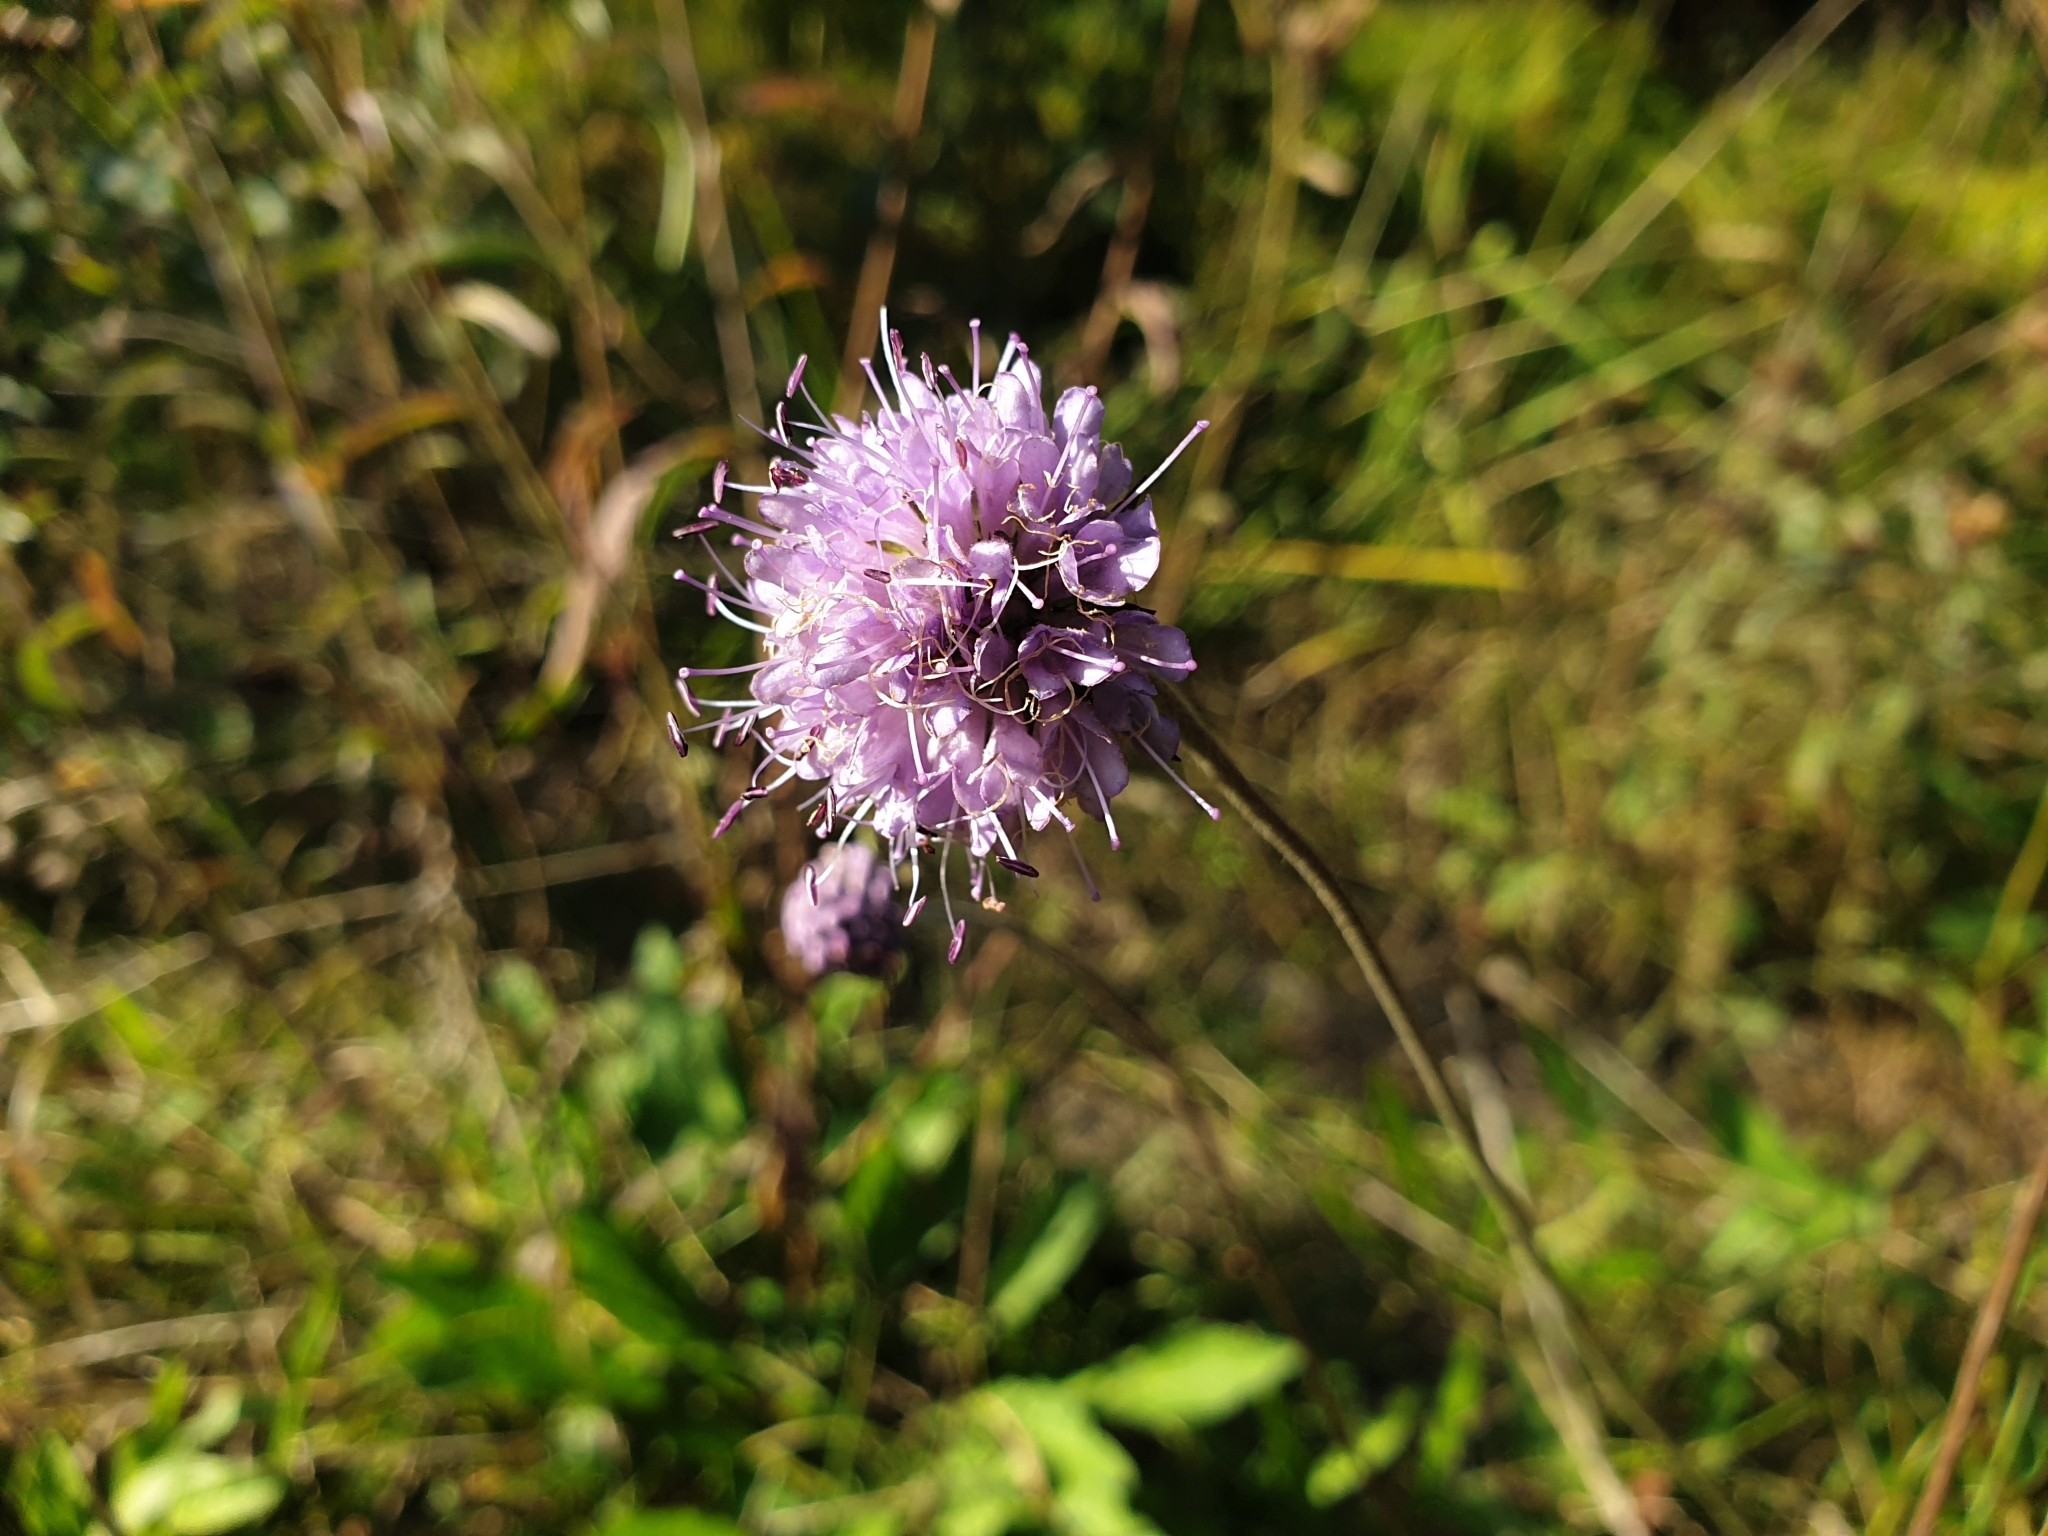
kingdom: Plantae
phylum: Tracheophyta
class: Magnoliopsida
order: Dipsacales
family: Caprifoliaceae
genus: Succisa
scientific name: Succisa pratensis
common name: Devil's-bit
